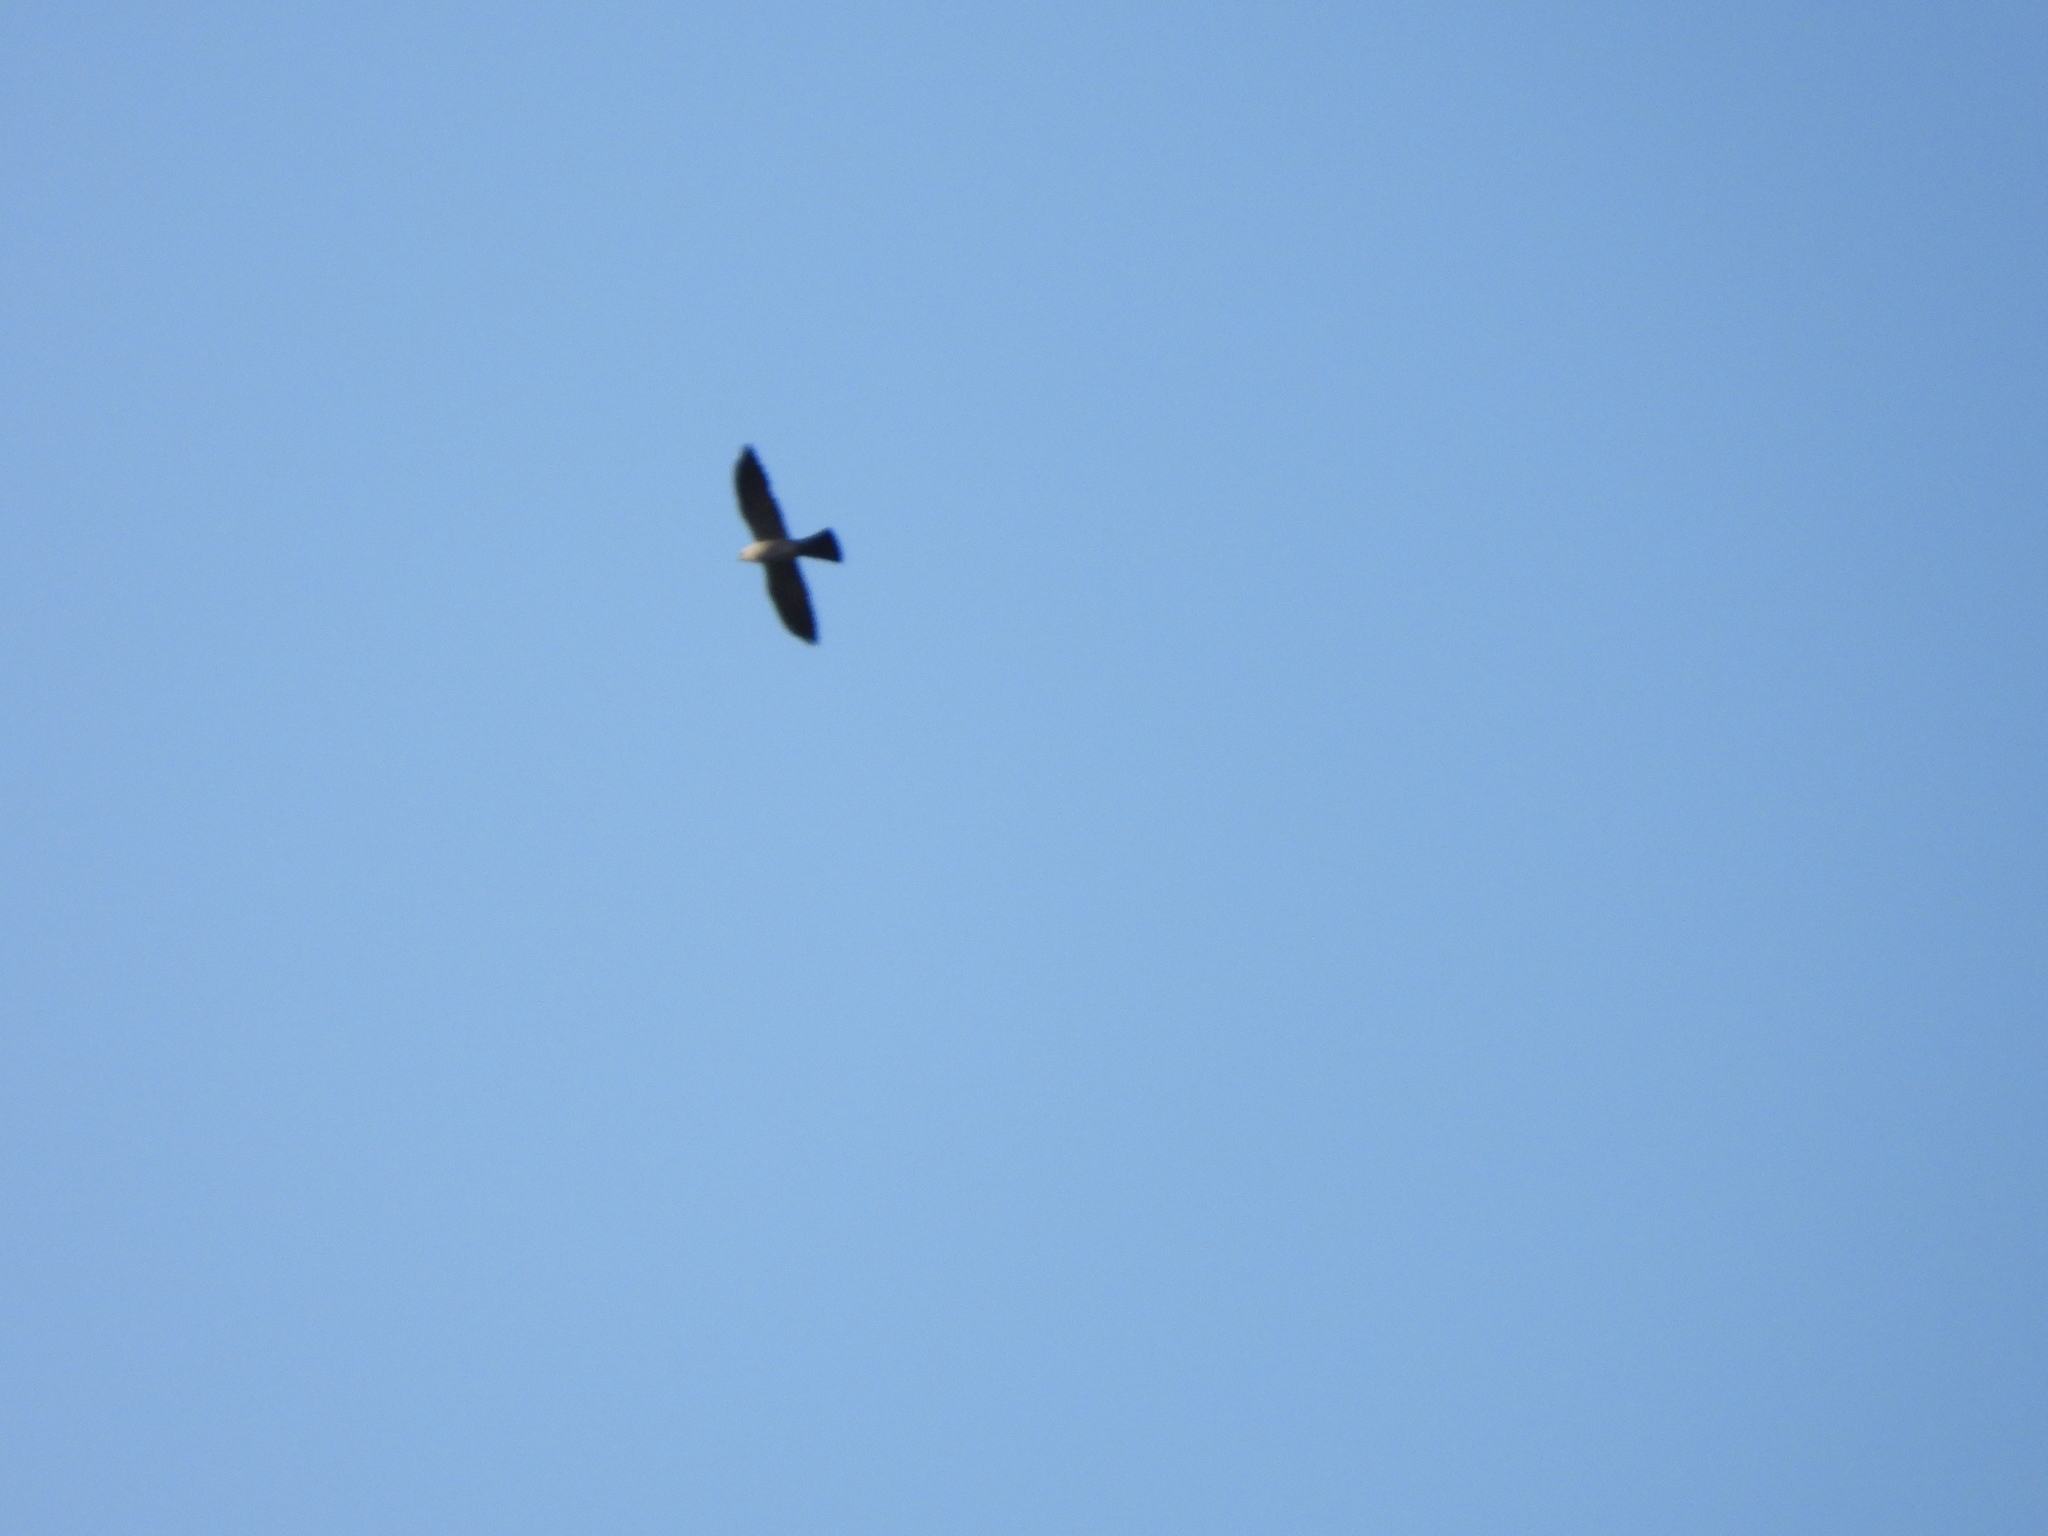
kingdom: Animalia
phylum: Chordata
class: Aves
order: Accipitriformes
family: Accipitridae
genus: Ictinia
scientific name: Ictinia mississippiensis
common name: Mississippi kite
